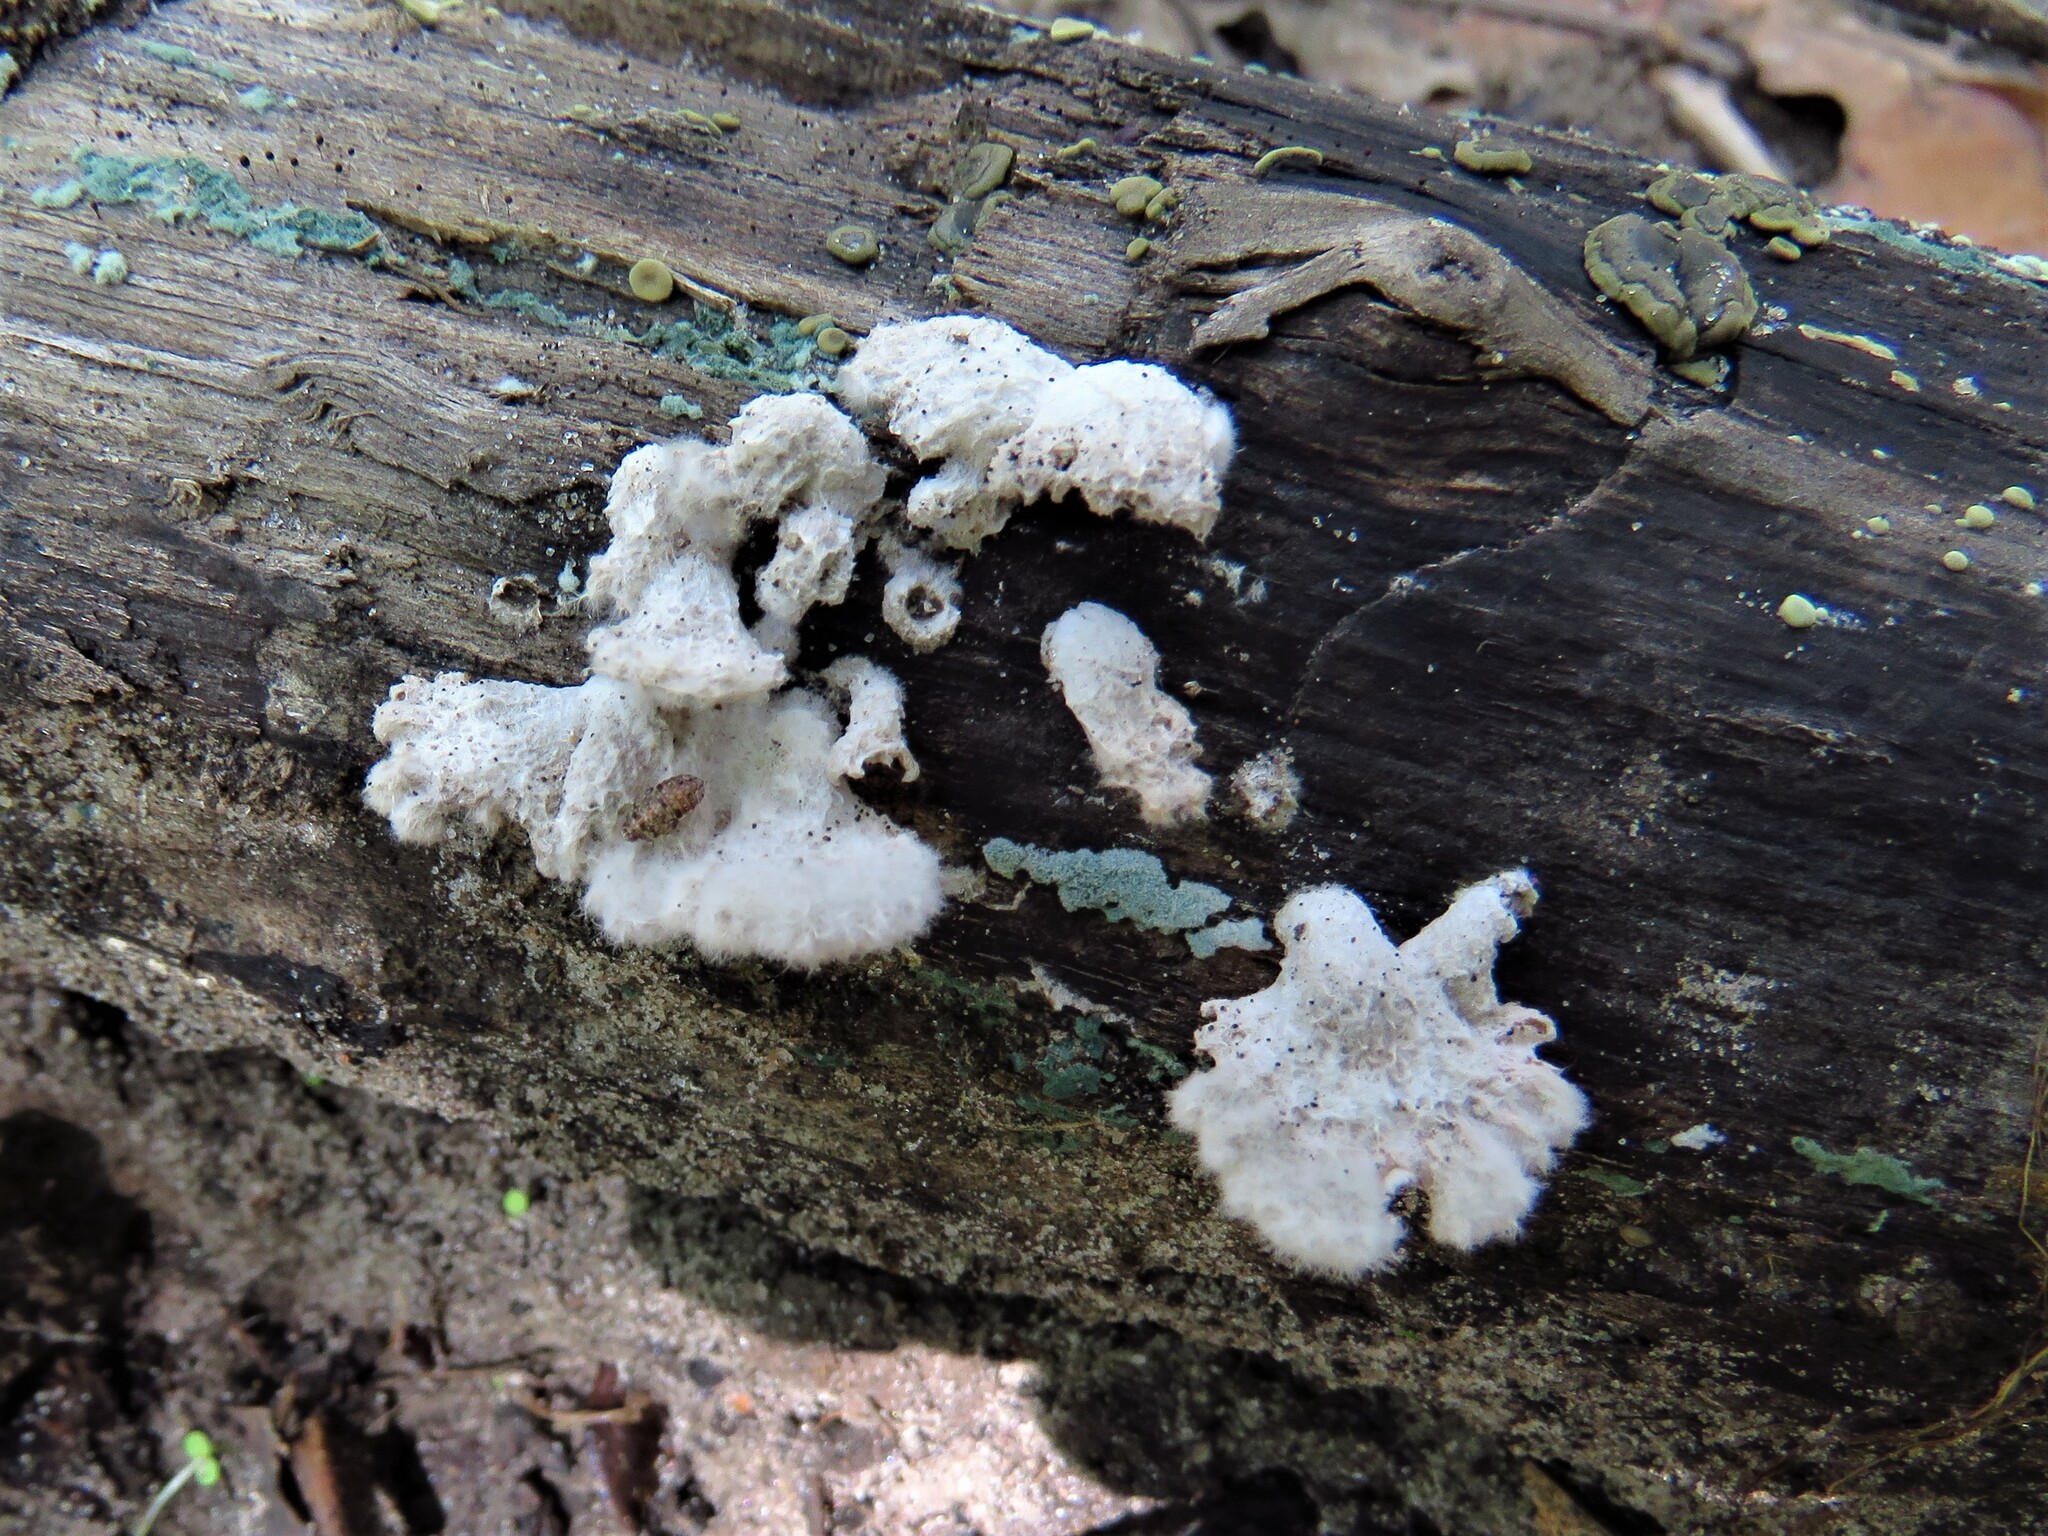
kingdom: Fungi
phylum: Basidiomycota
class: Agaricomycetes
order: Agaricales
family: Schizophyllaceae
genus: Schizophyllum
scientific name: Schizophyllum commune
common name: Common porecrust
